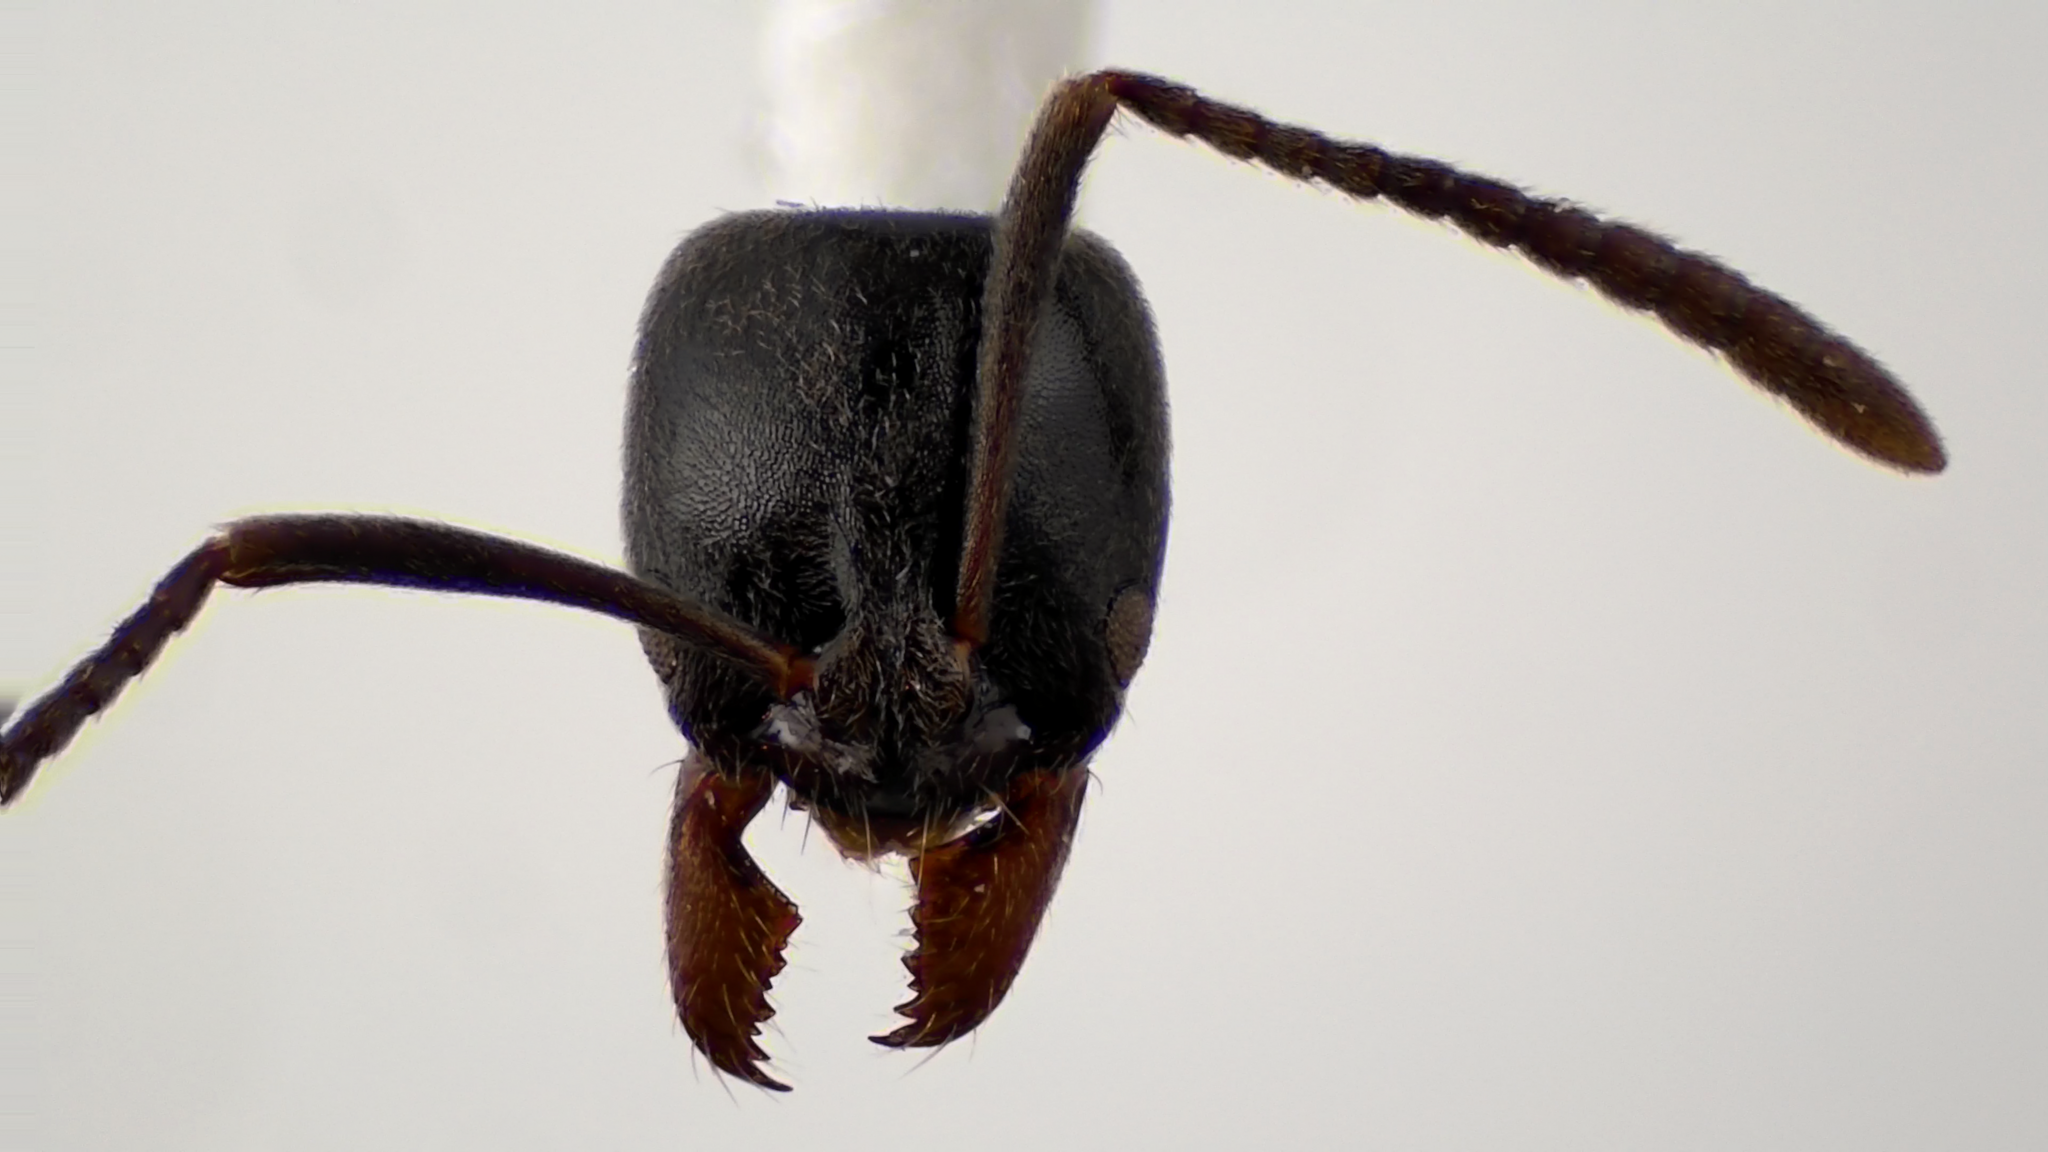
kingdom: Animalia
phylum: Arthropoda
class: Insecta
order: Hymenoptera
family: Formicidae
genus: Pachycondyla
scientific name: Pachycondyla chinensis
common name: Asian needle ant
